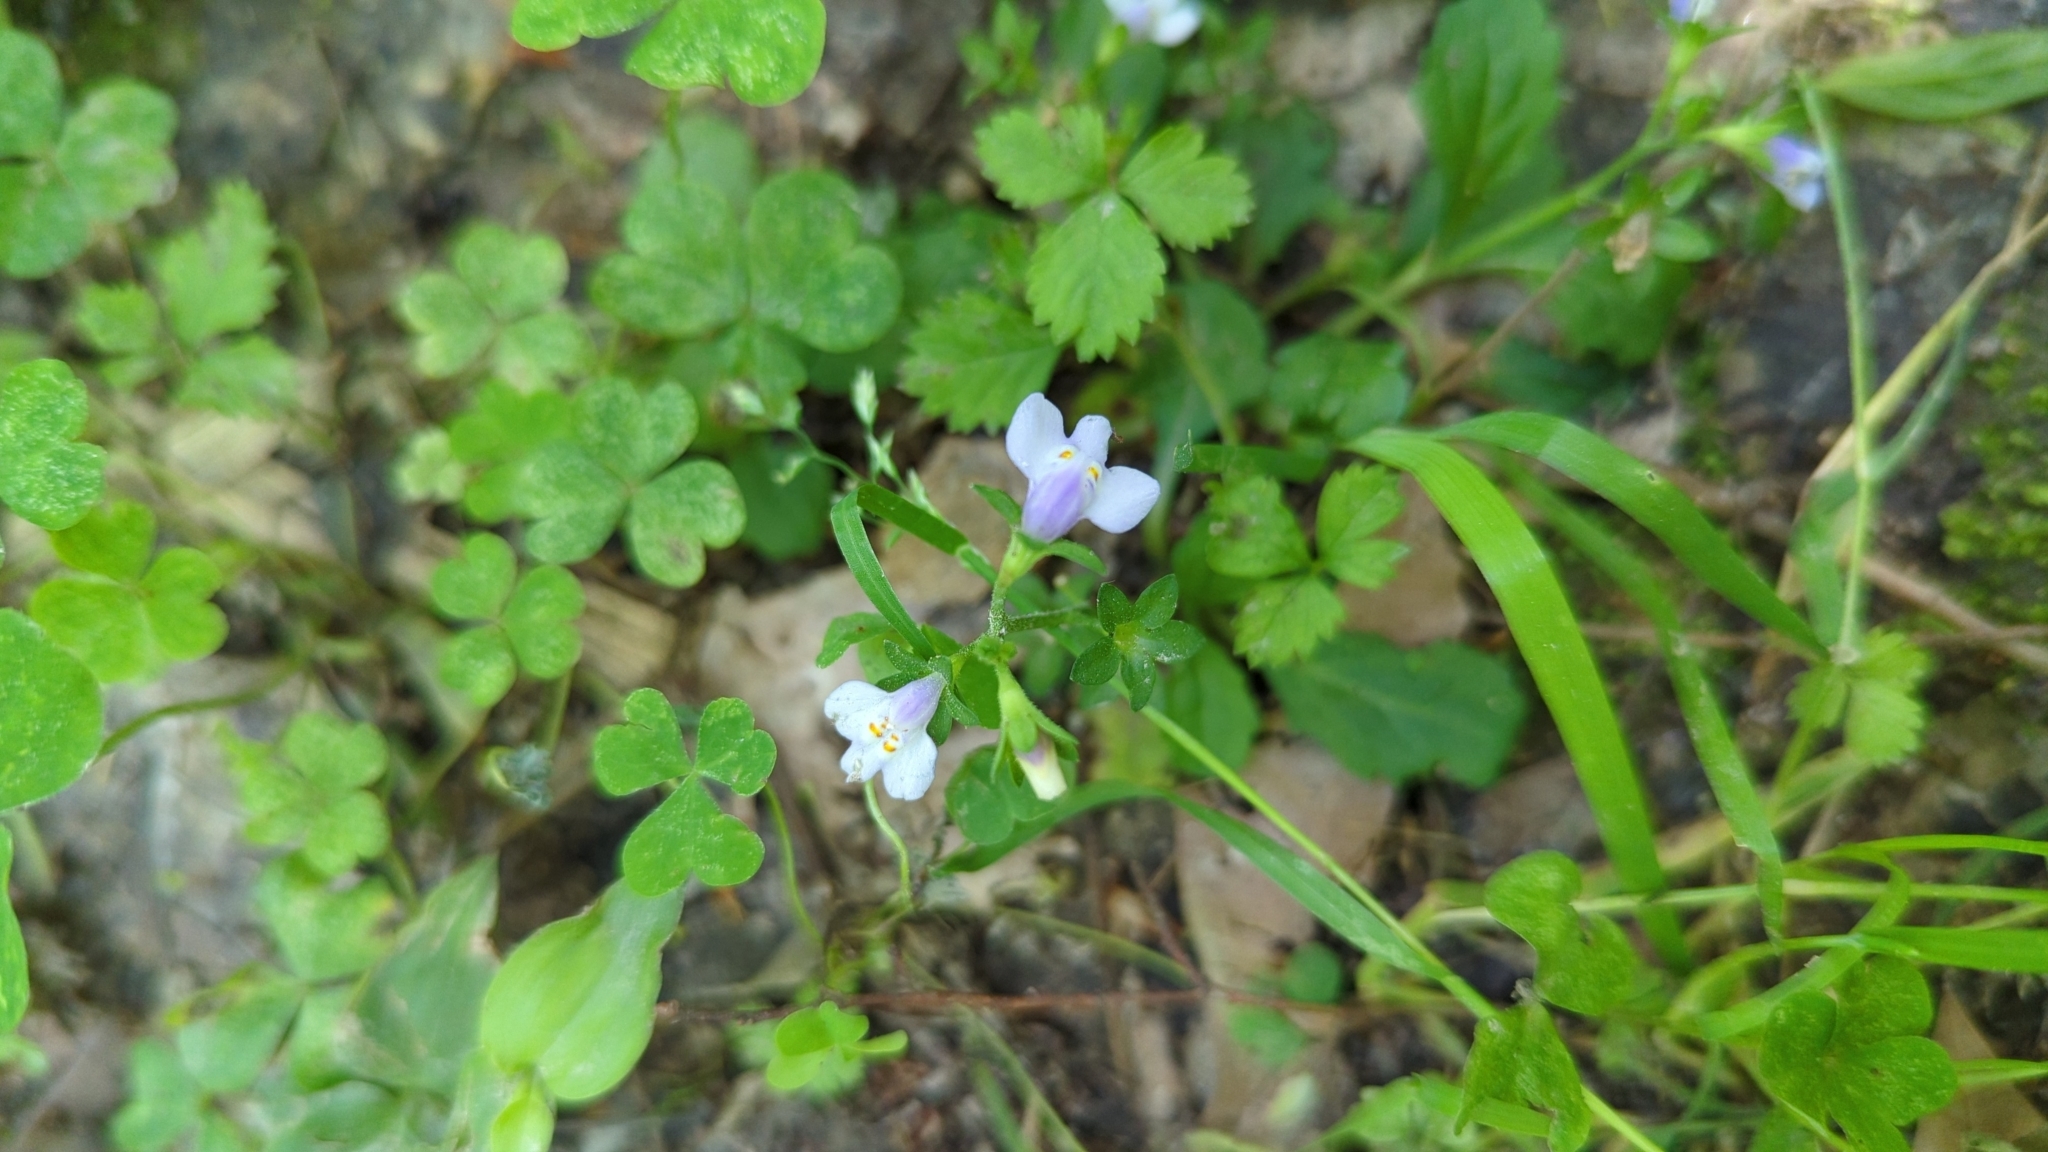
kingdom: Plantae
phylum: Tracheophyta
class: Magnoliopsida
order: Lamiales
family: Mazaceae
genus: Mazus
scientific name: Mazus pumilus
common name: Japanese mazus
